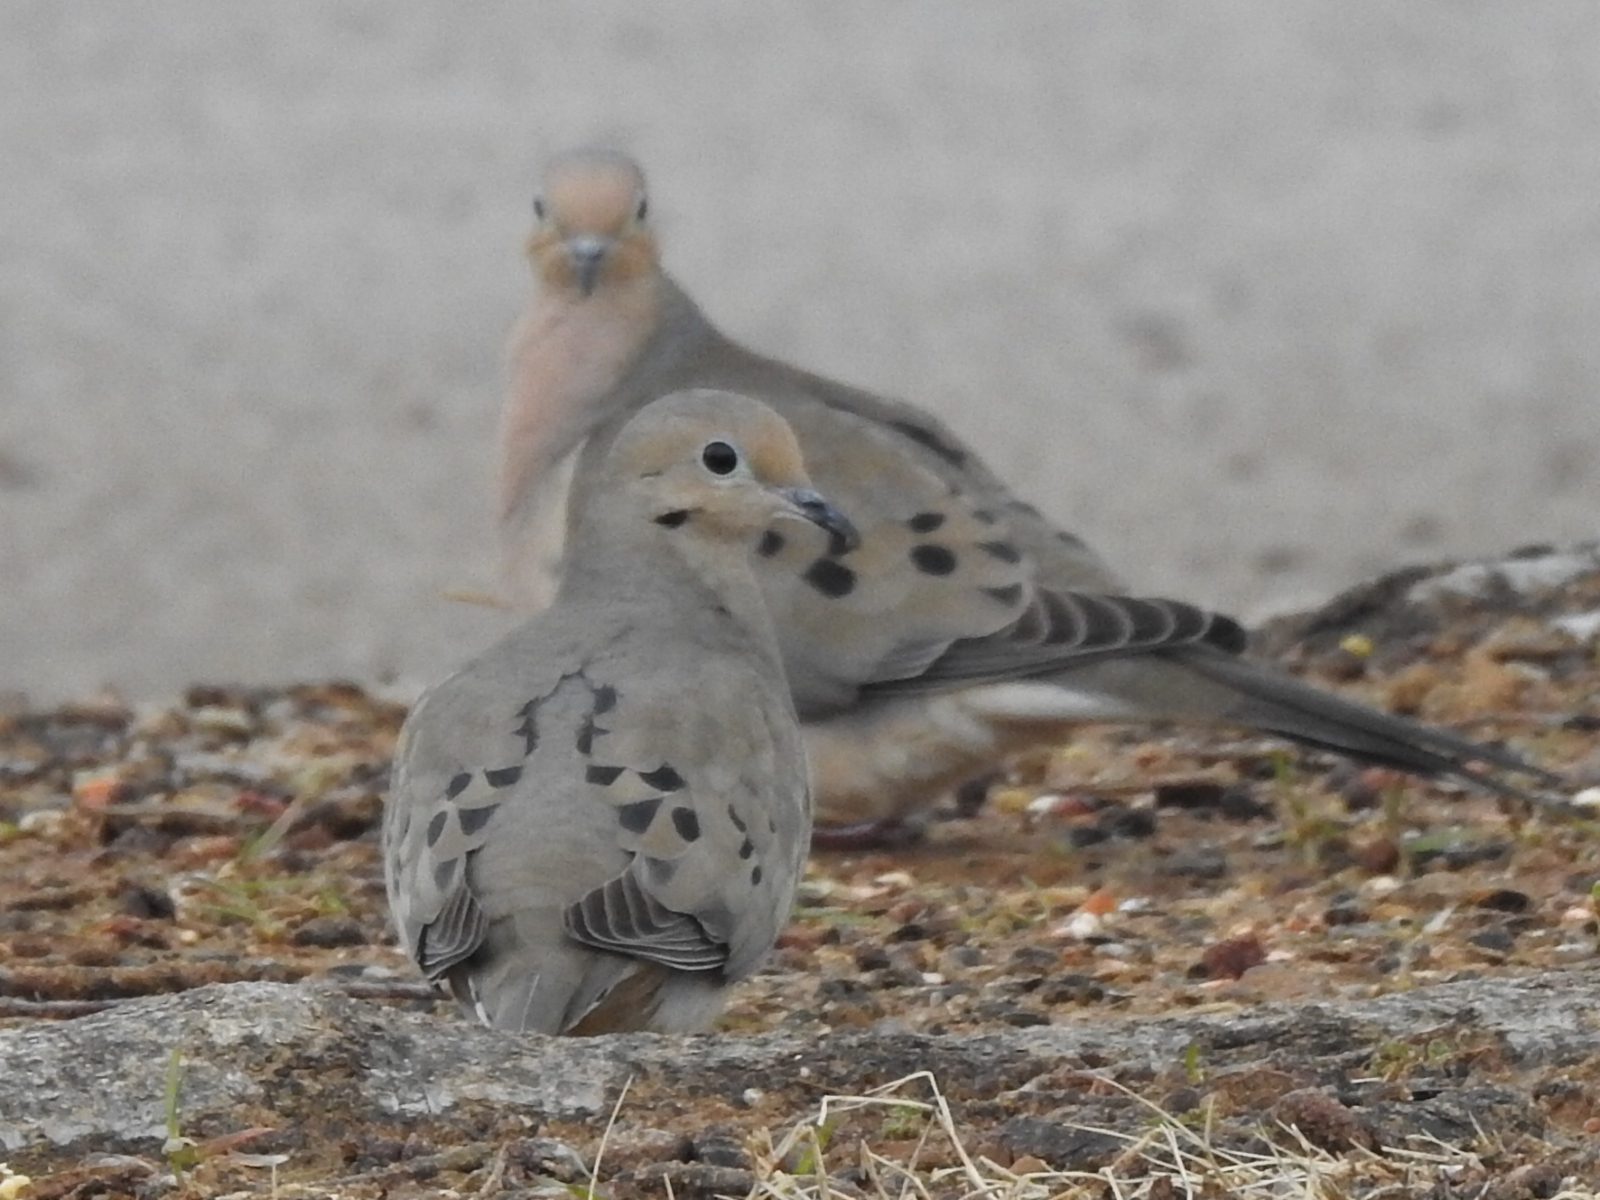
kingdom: Animalia
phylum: Chordata
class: Aves
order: Columbiformes
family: Columbidae
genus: Zenaida
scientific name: Zenaida macroura
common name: Mourning dove
